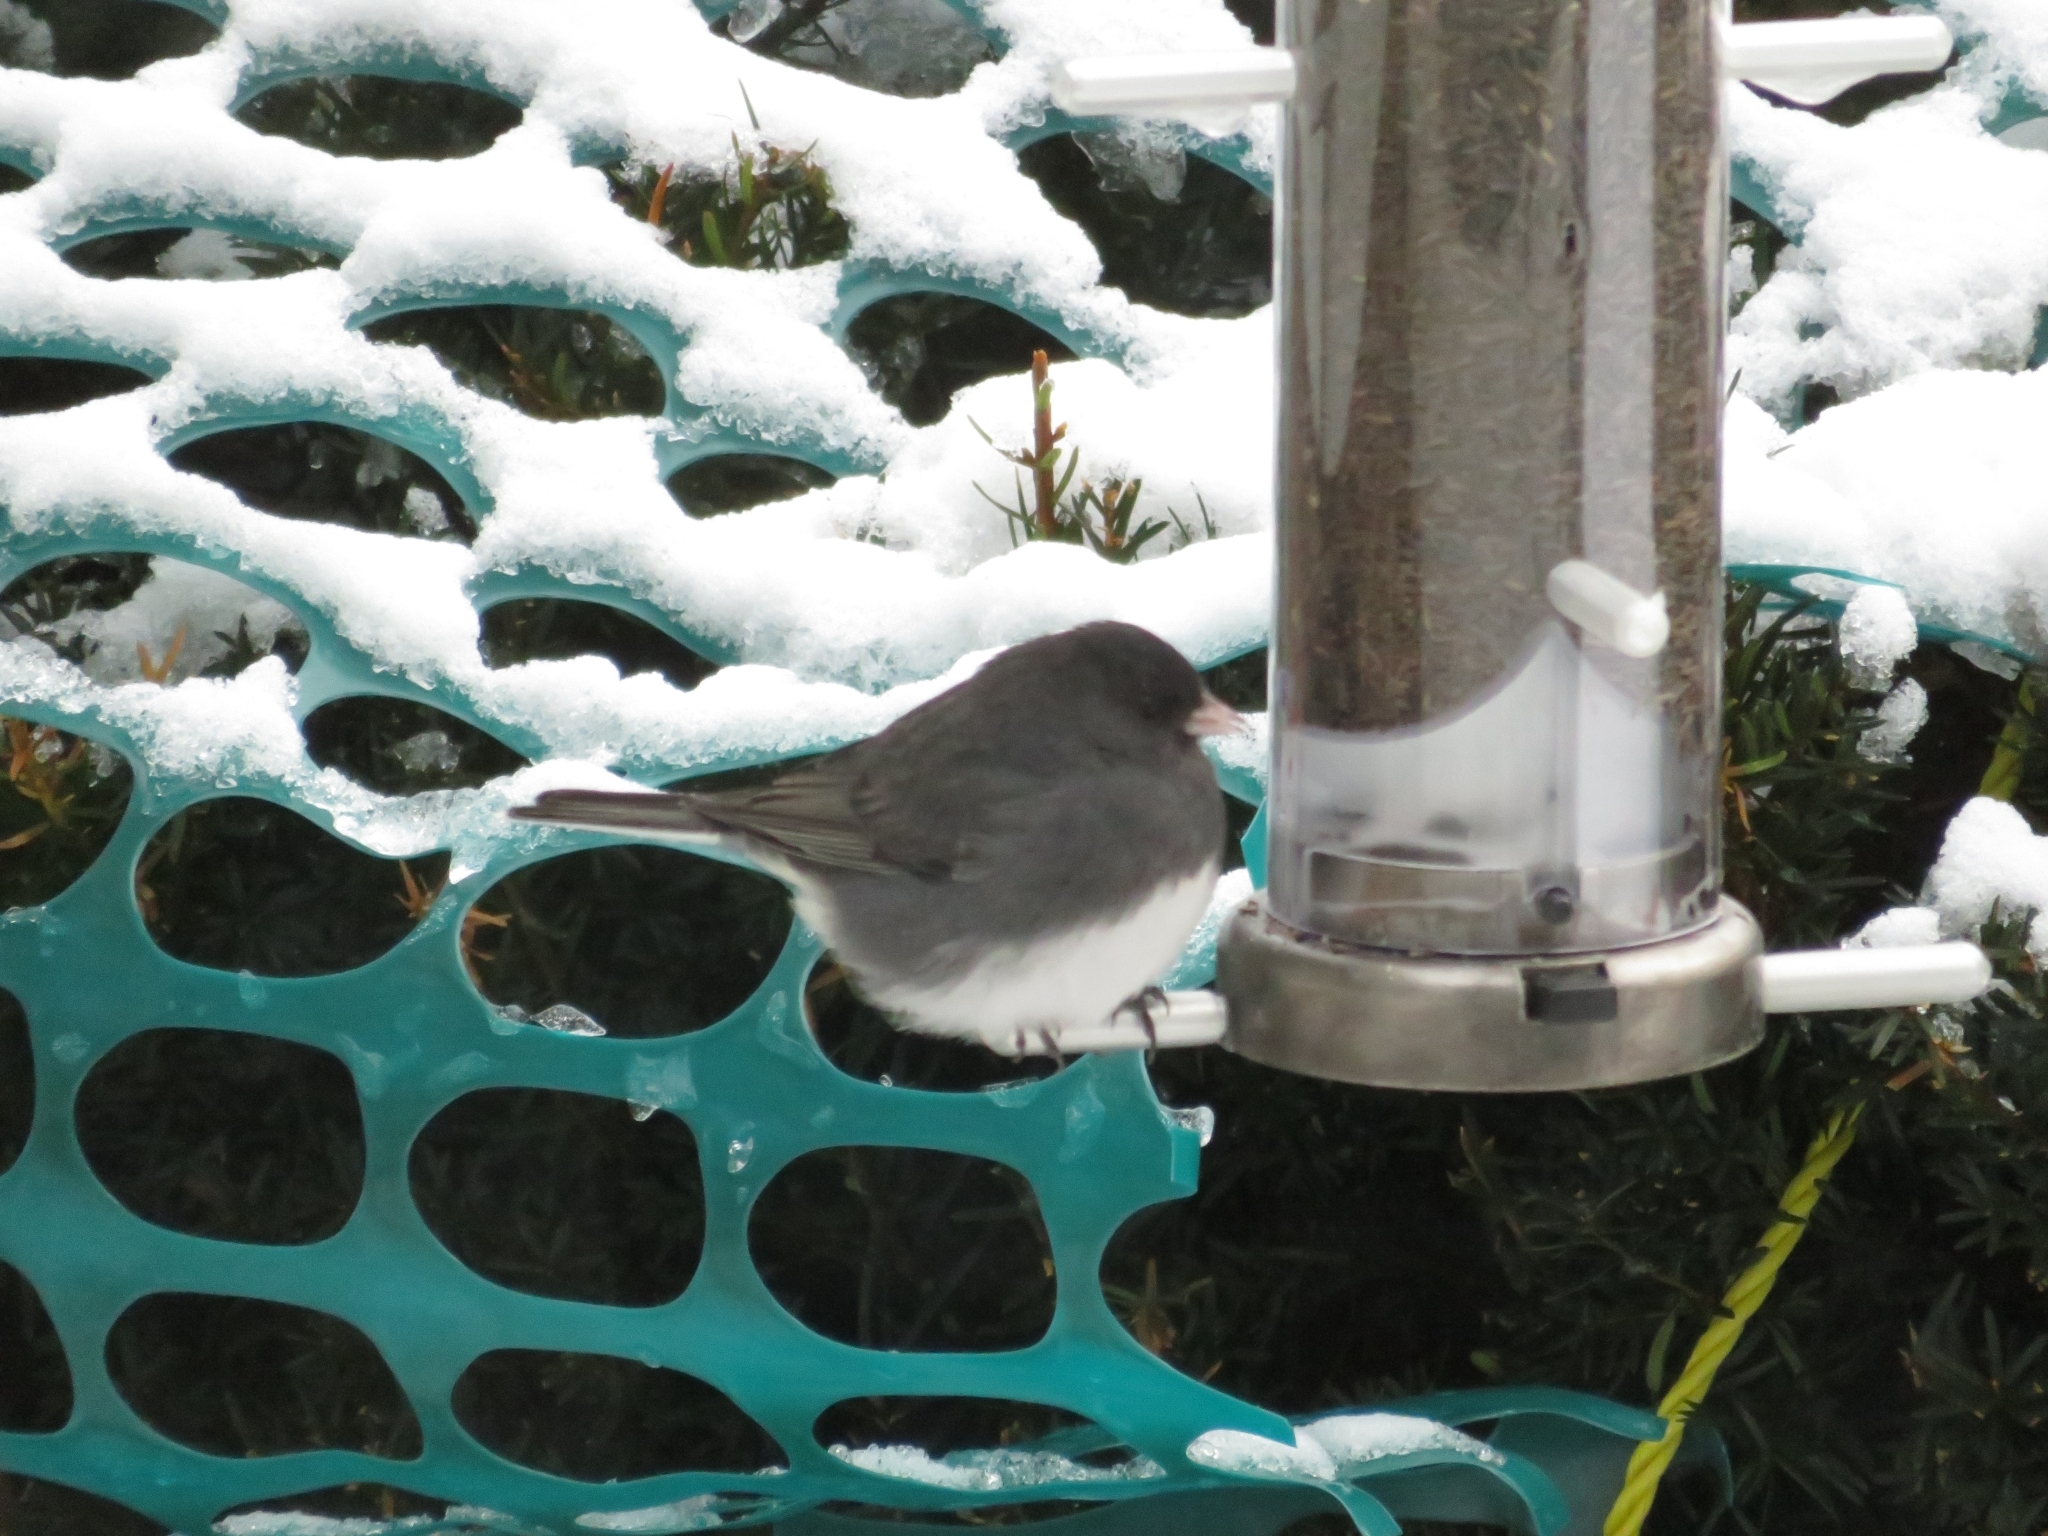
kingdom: Animalia
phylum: Chordata
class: Aves
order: Passeriformes
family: Passerellidae
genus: Junco
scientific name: Junco hyemalis
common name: Dark-eyed junco
